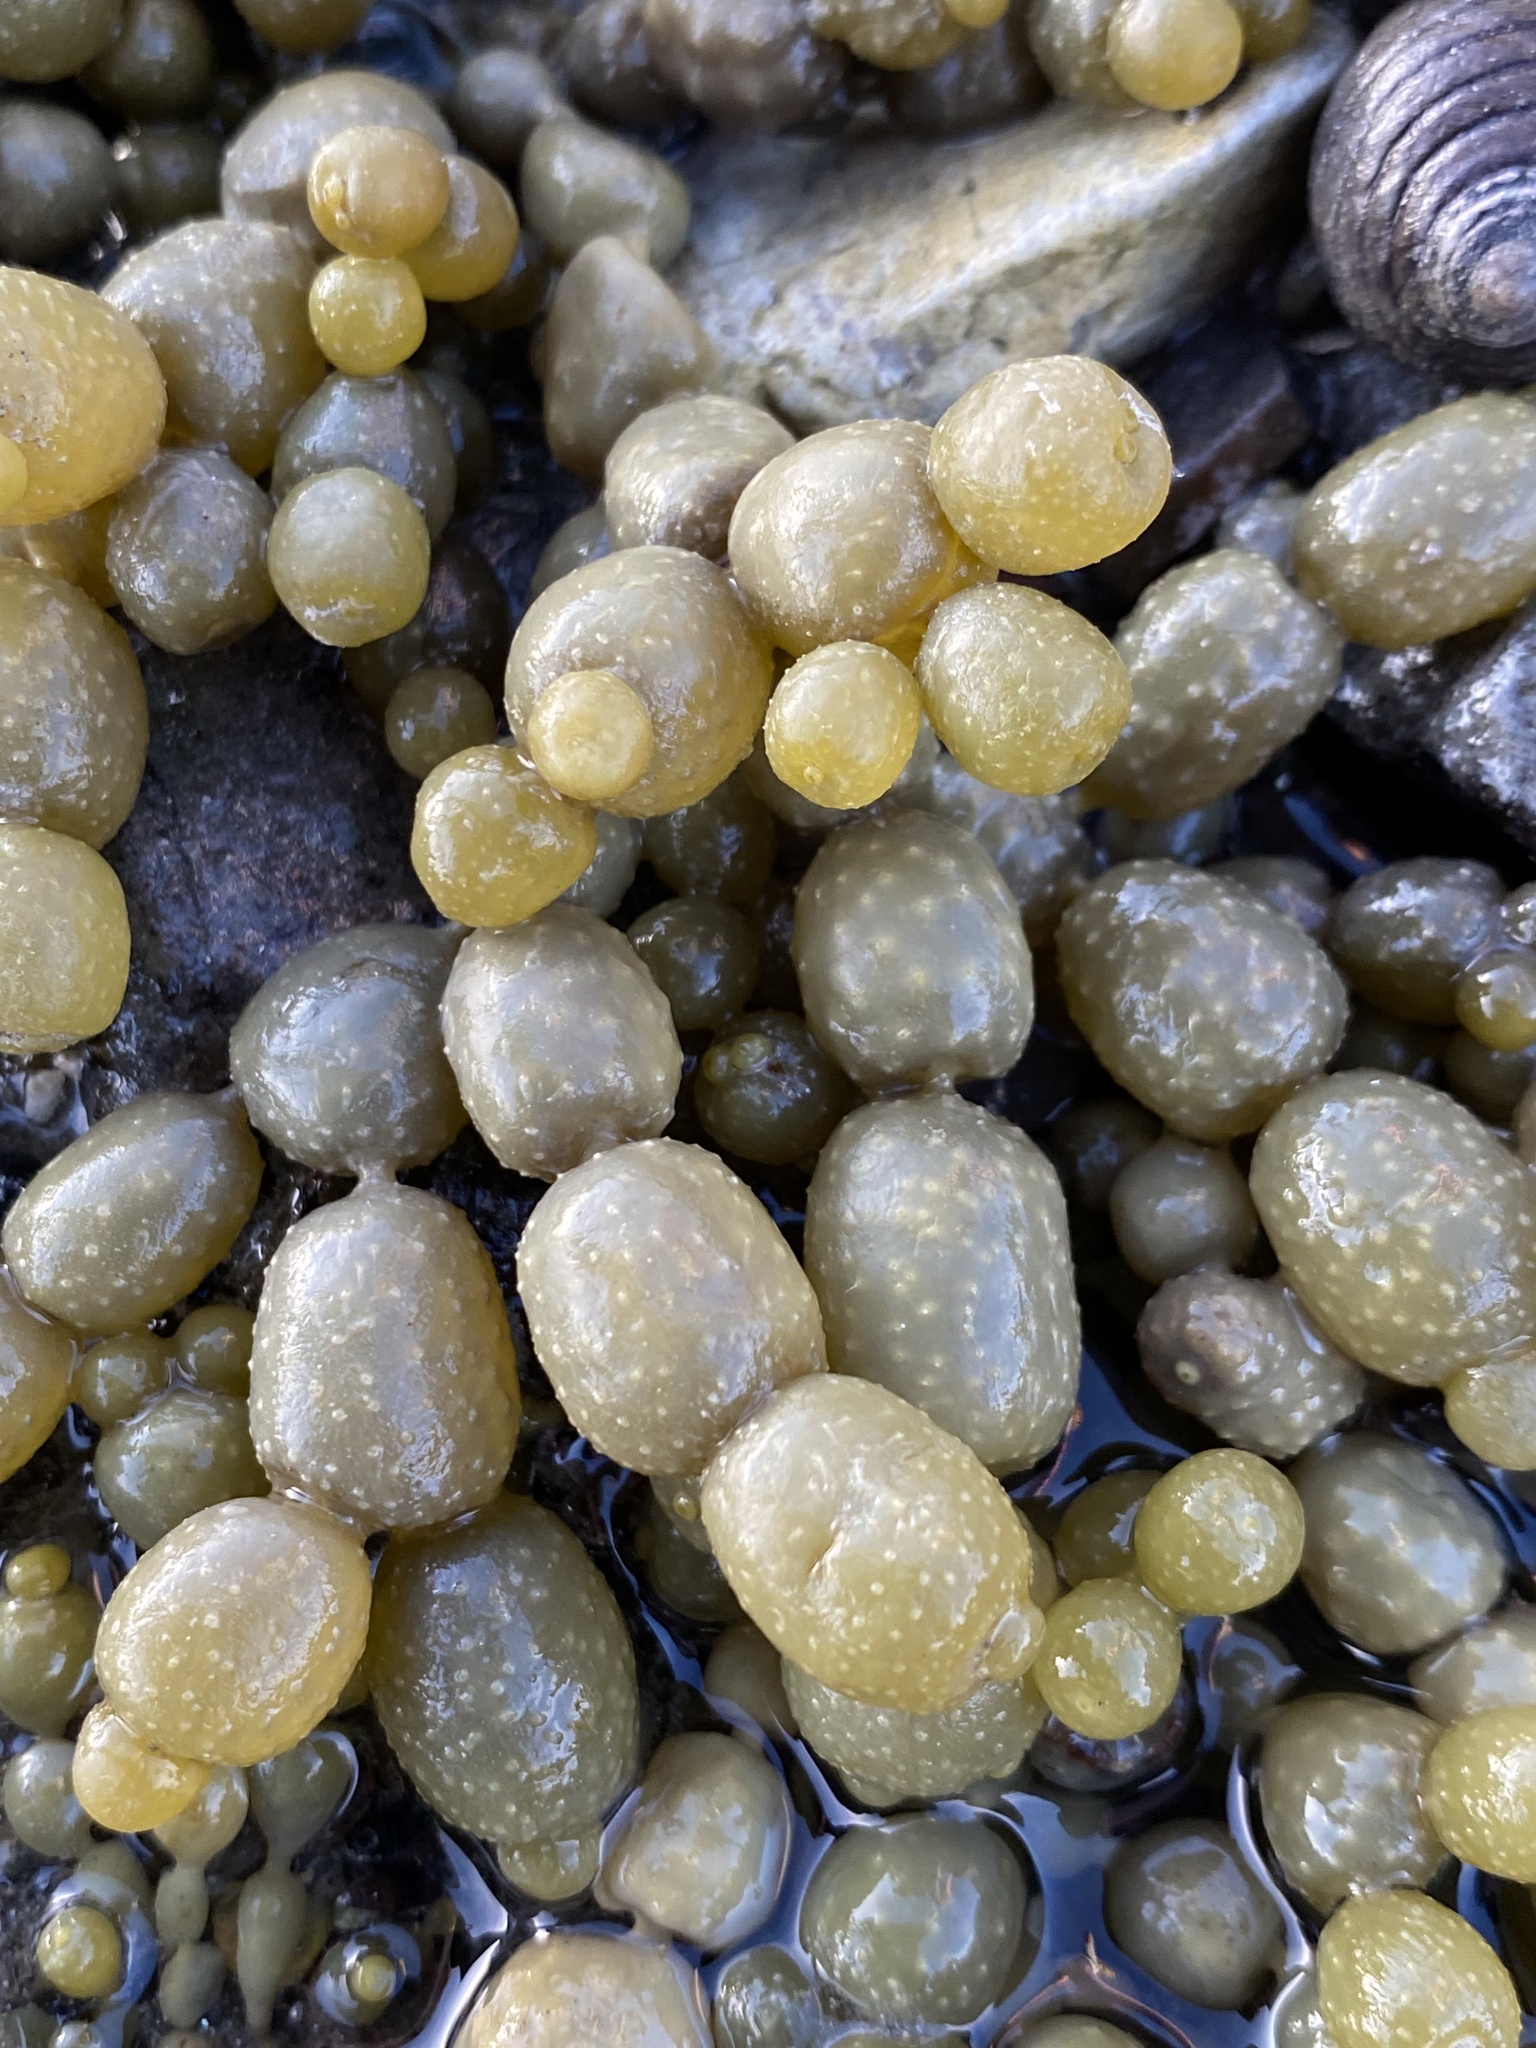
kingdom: Chromista
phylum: Ochrophyta
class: Phaeophyceae
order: Fucales
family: Hormosiraceae
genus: Hormosira
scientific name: Hormosira banksii
